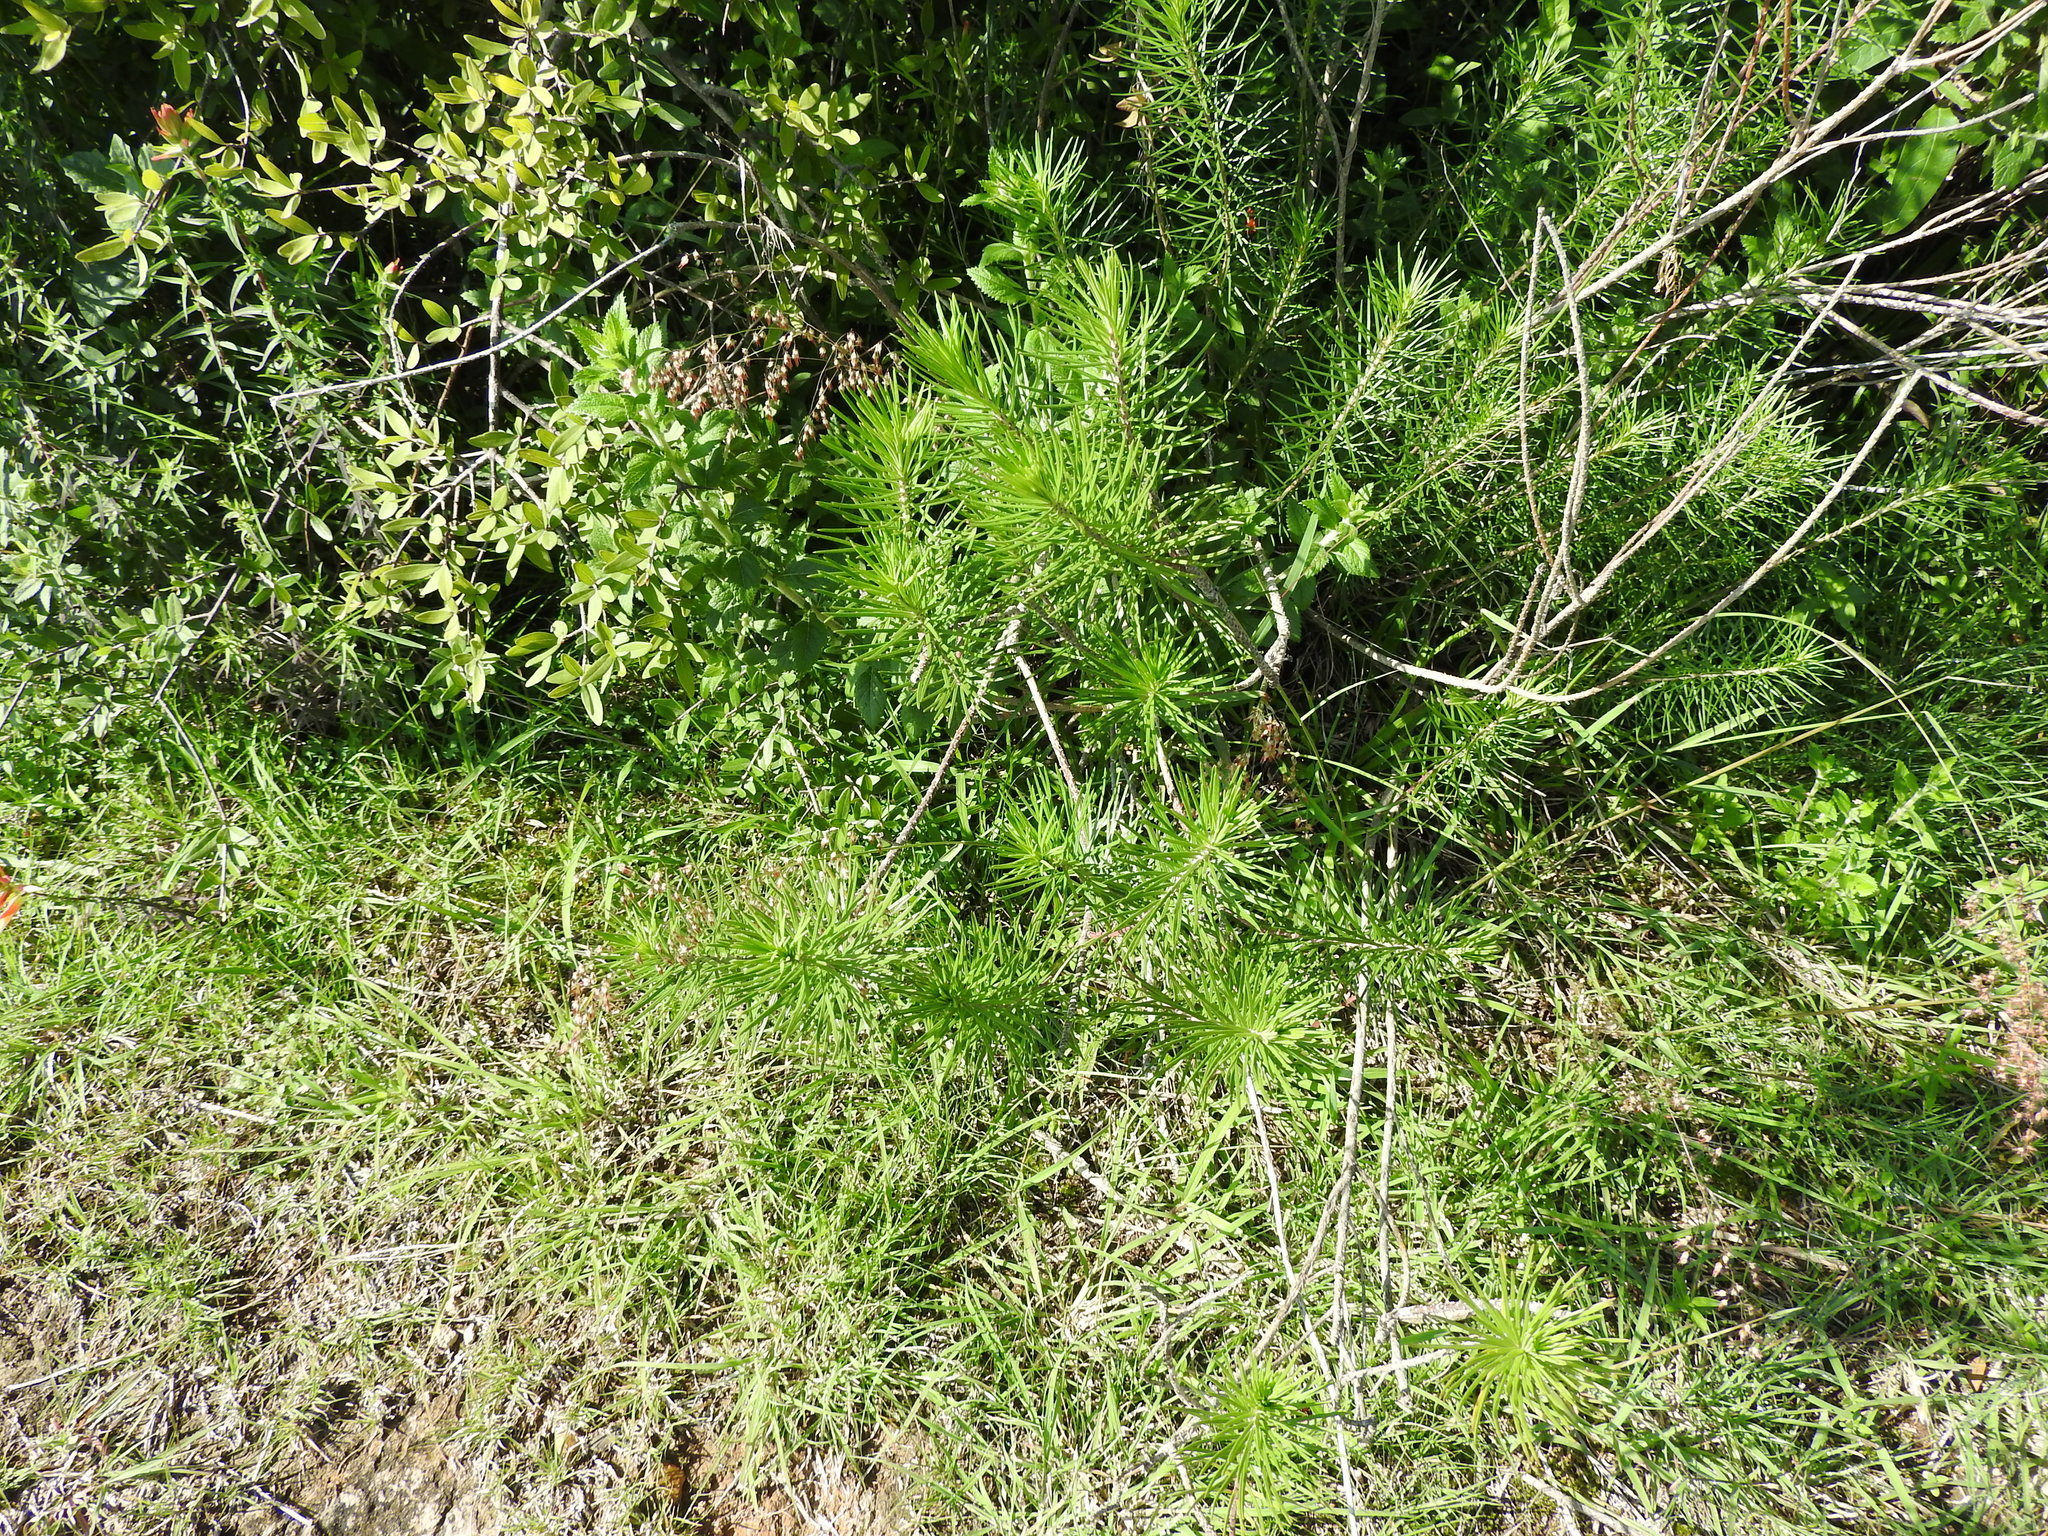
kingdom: Plantae
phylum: Tracheophyta
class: Magnoliopsida
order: Gentianales
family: Apocynaceae
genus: Asclepias
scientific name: Asclepias linaria
